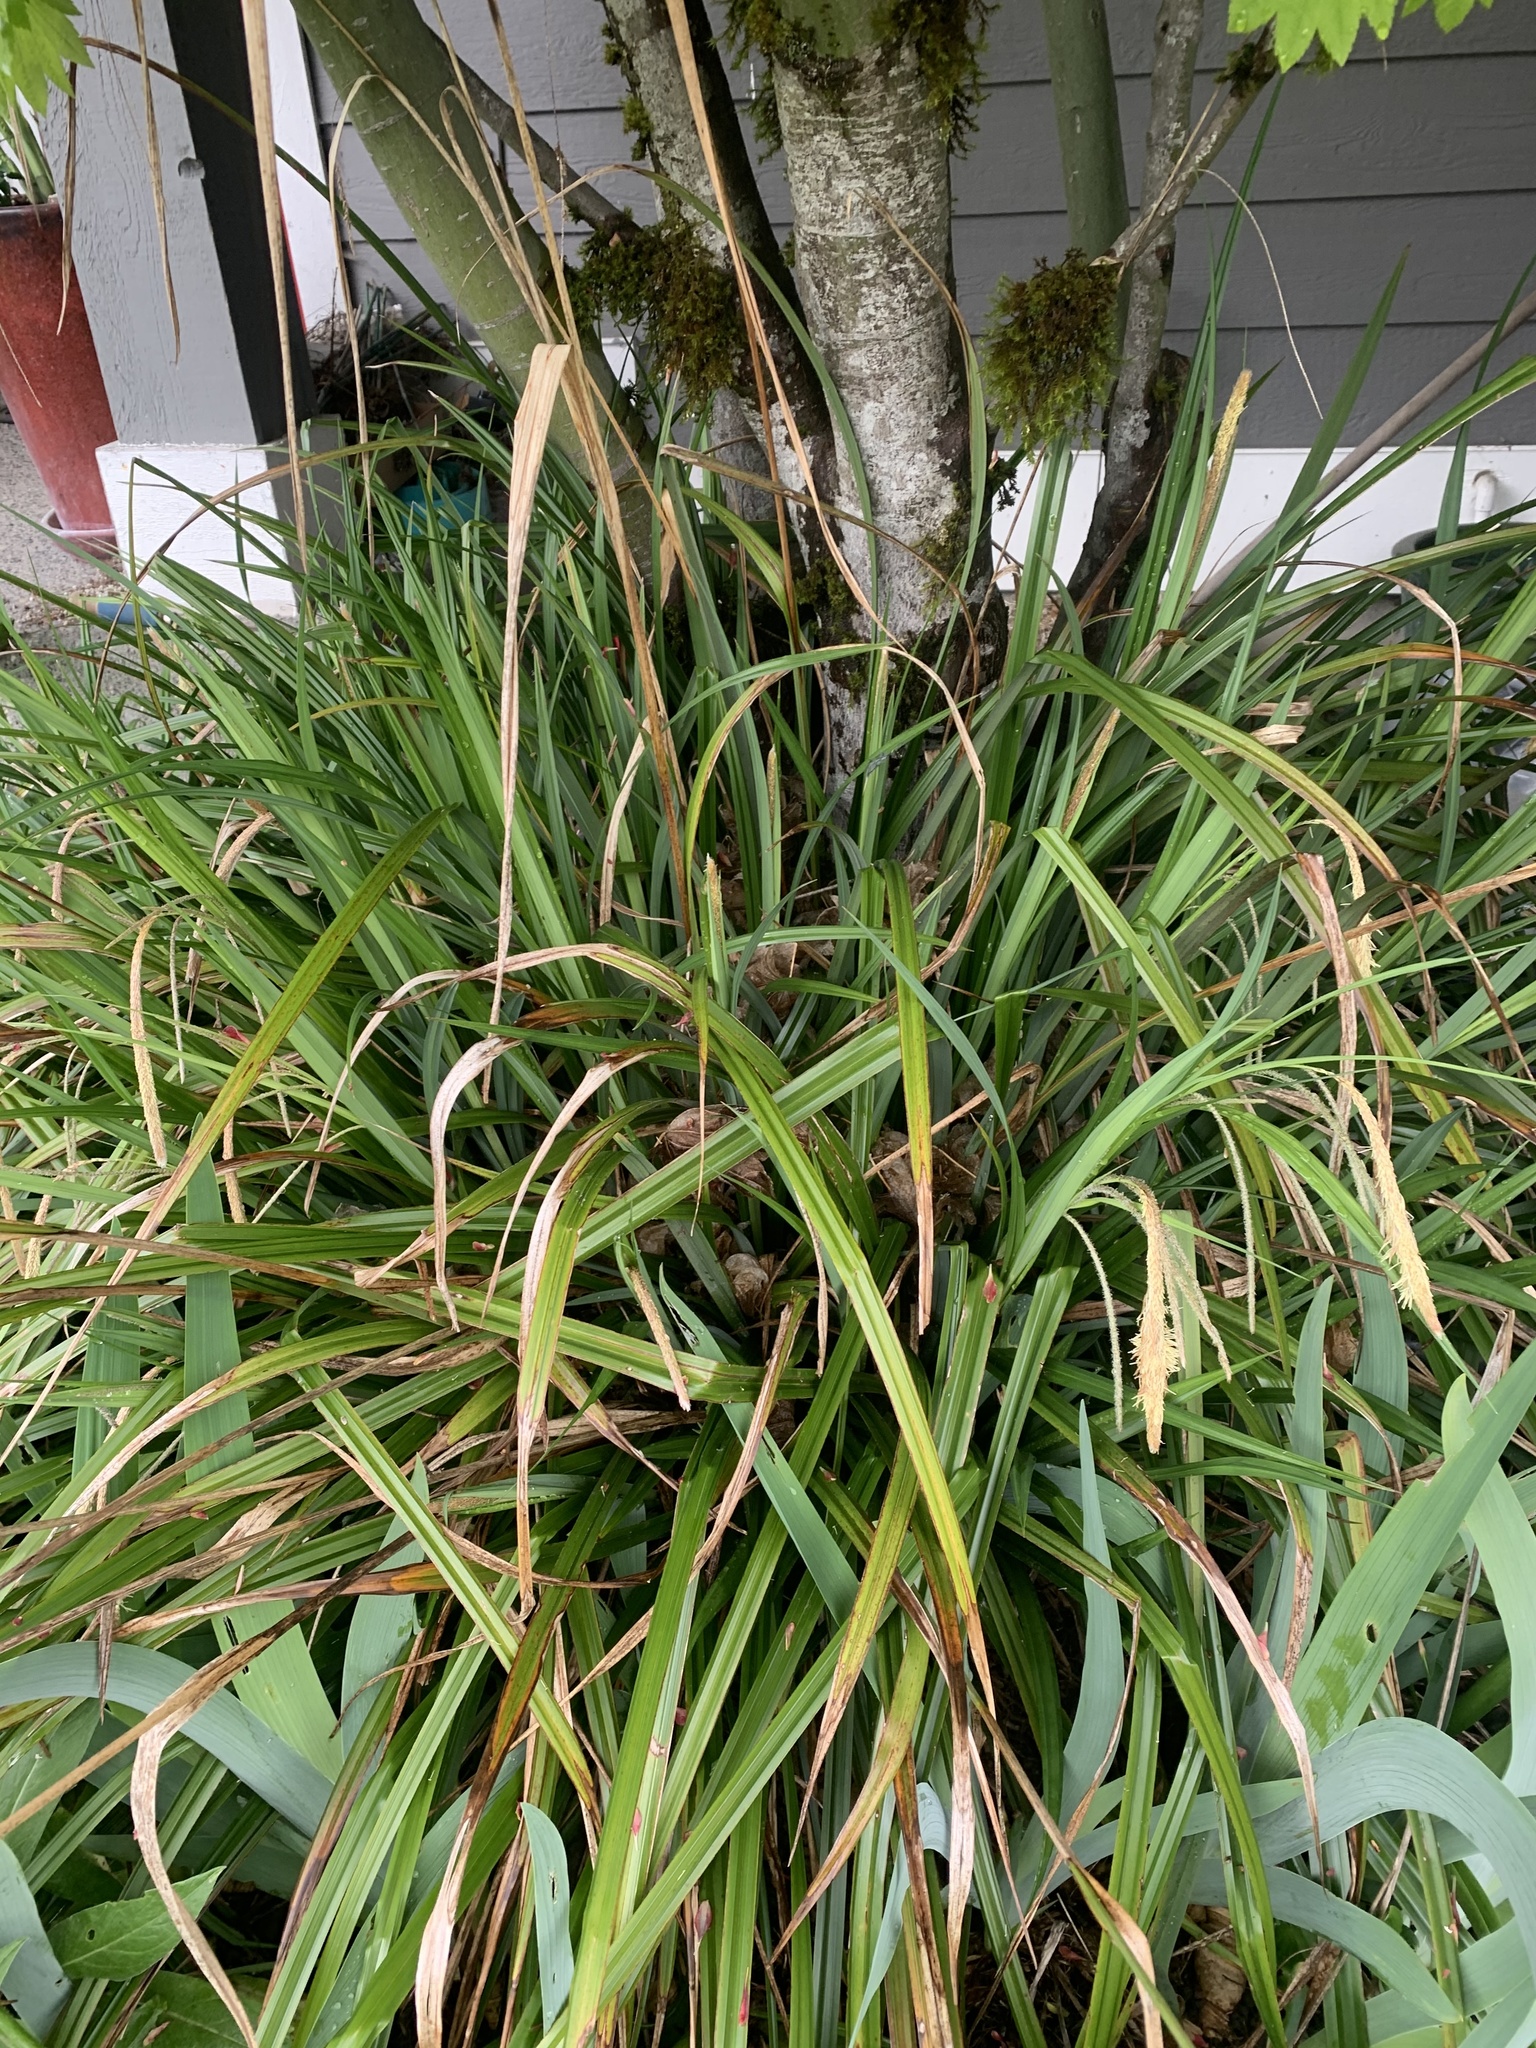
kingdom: Plantae
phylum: Tracheophyta
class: Liliopsida
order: Poales
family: Cyperaceae
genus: Carex
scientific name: Carex pendula
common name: Pendulous sedge
